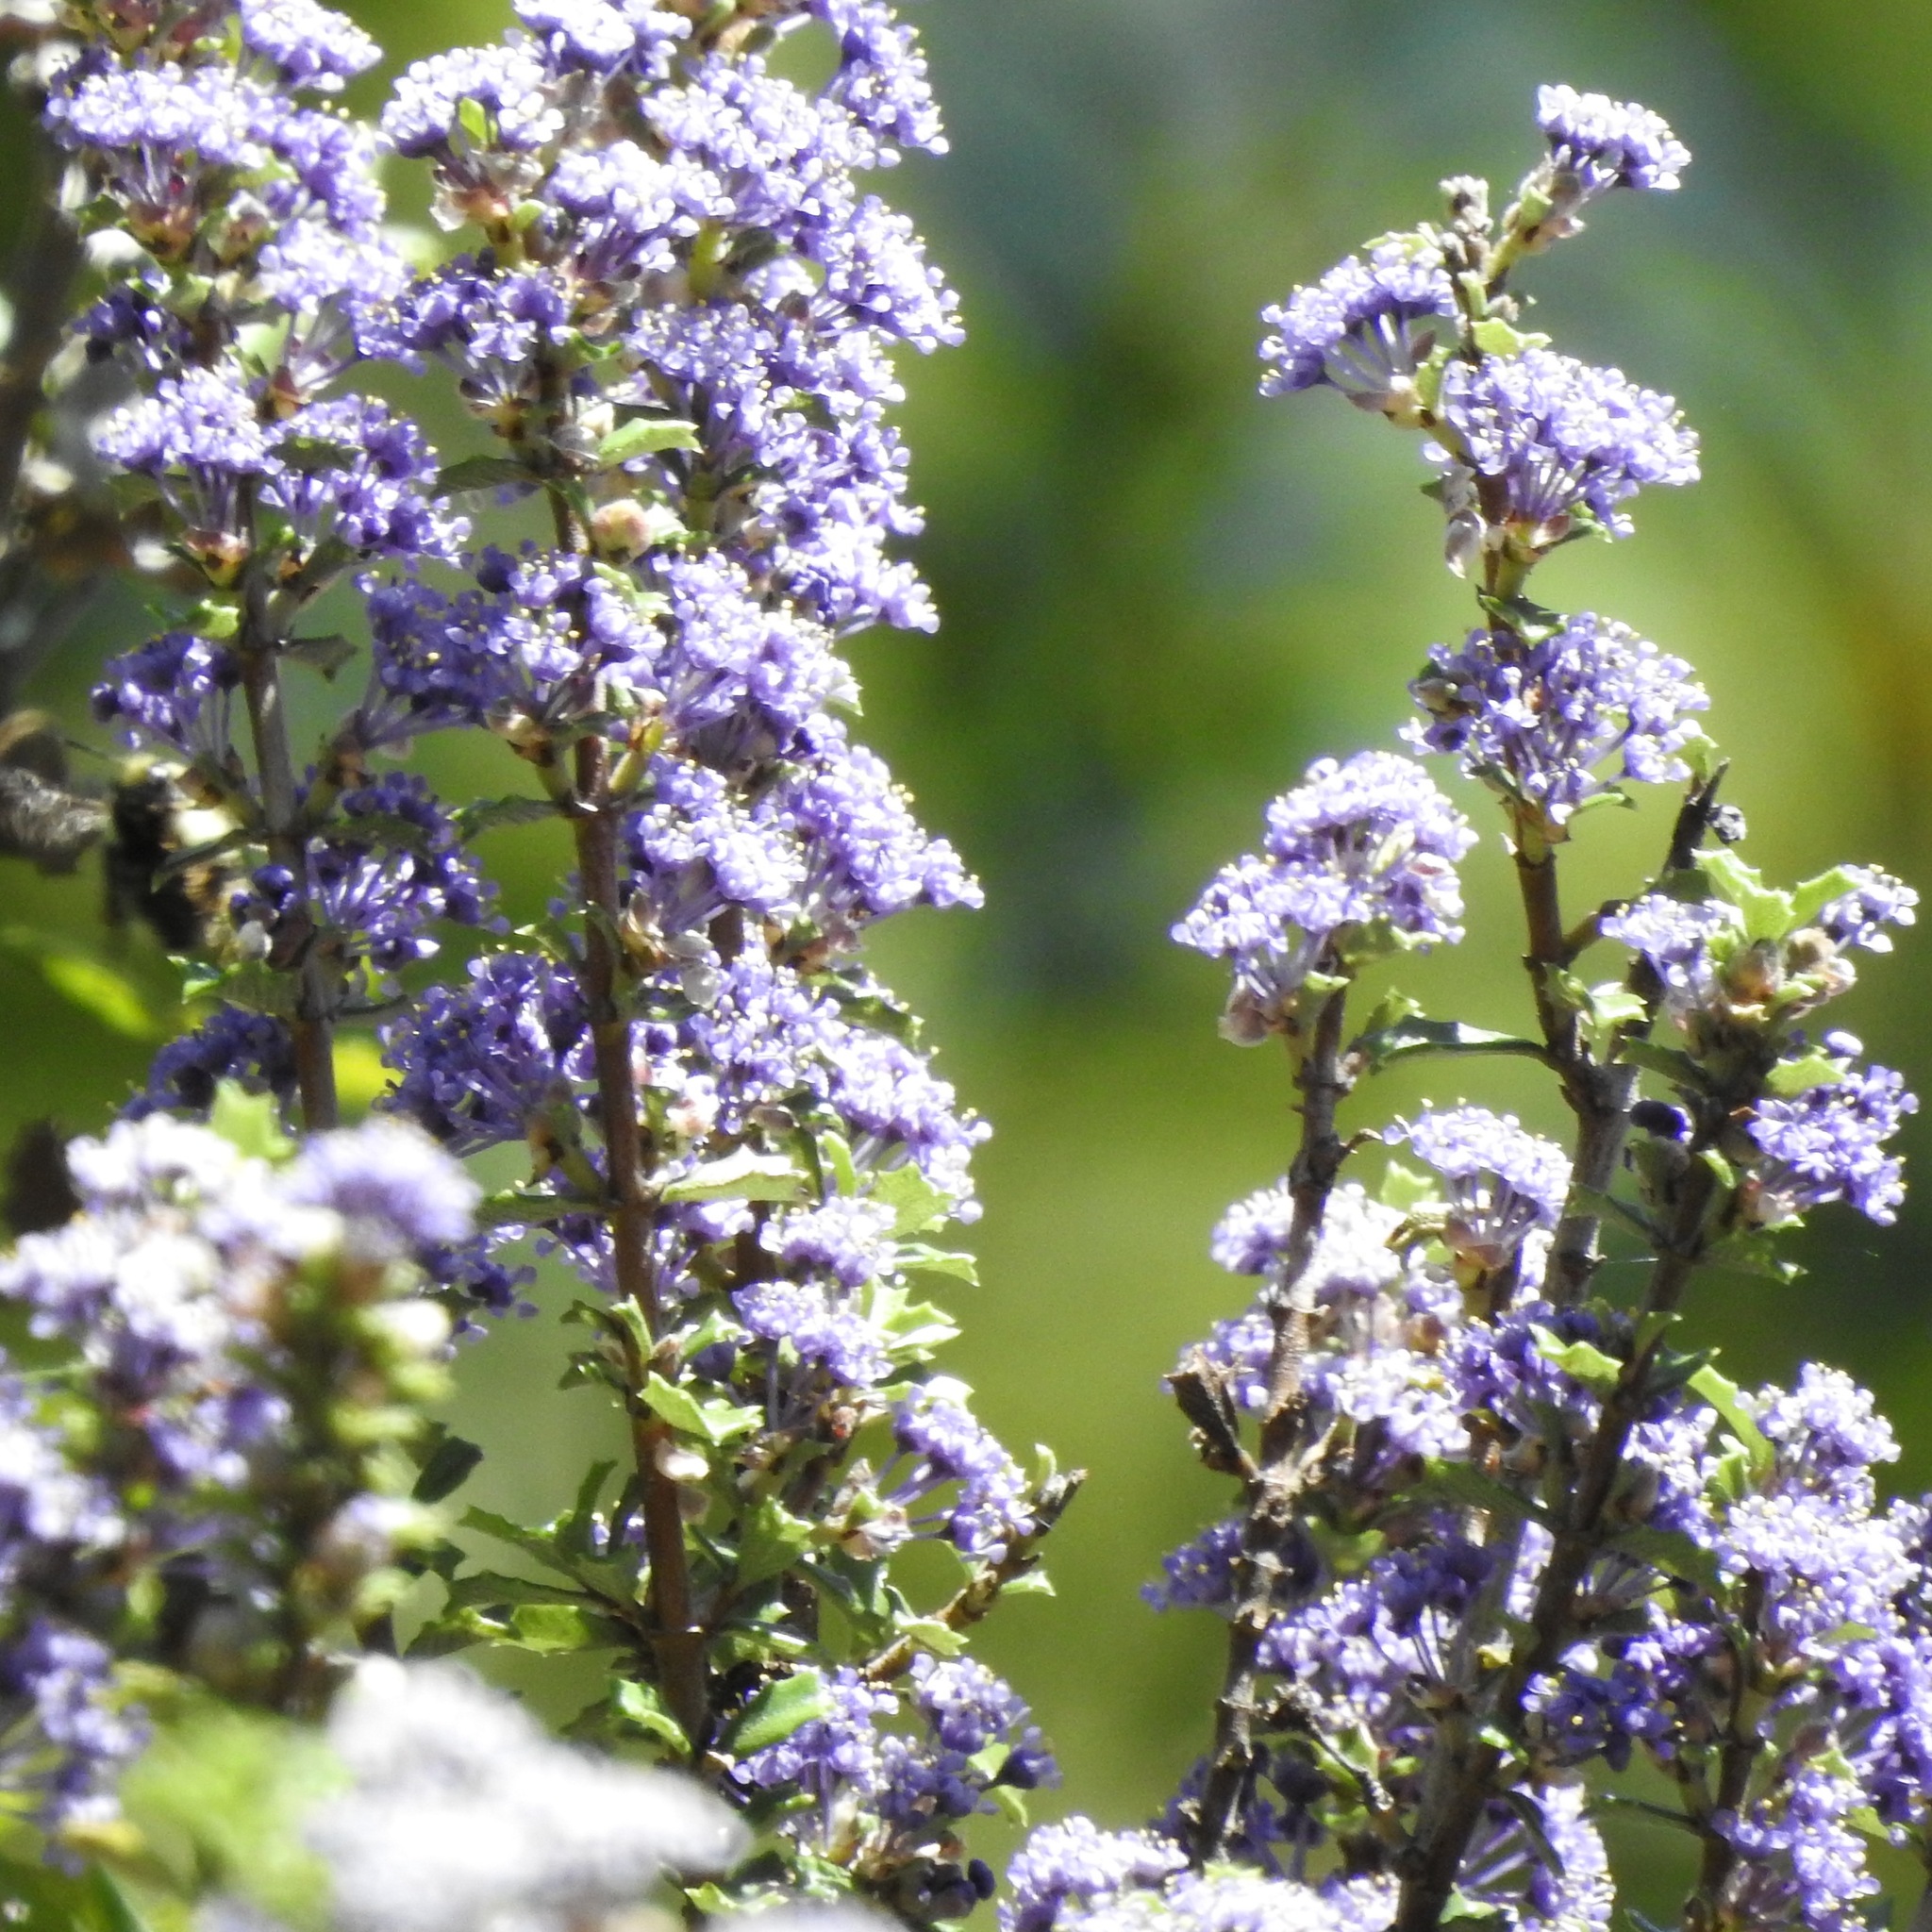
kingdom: Plantae
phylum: Tracheophyta
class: Magnoliopsida
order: Rosales
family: Rhamnaceae
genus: Ceanothus
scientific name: Ceanothus jepsonii
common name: Muskbrush
